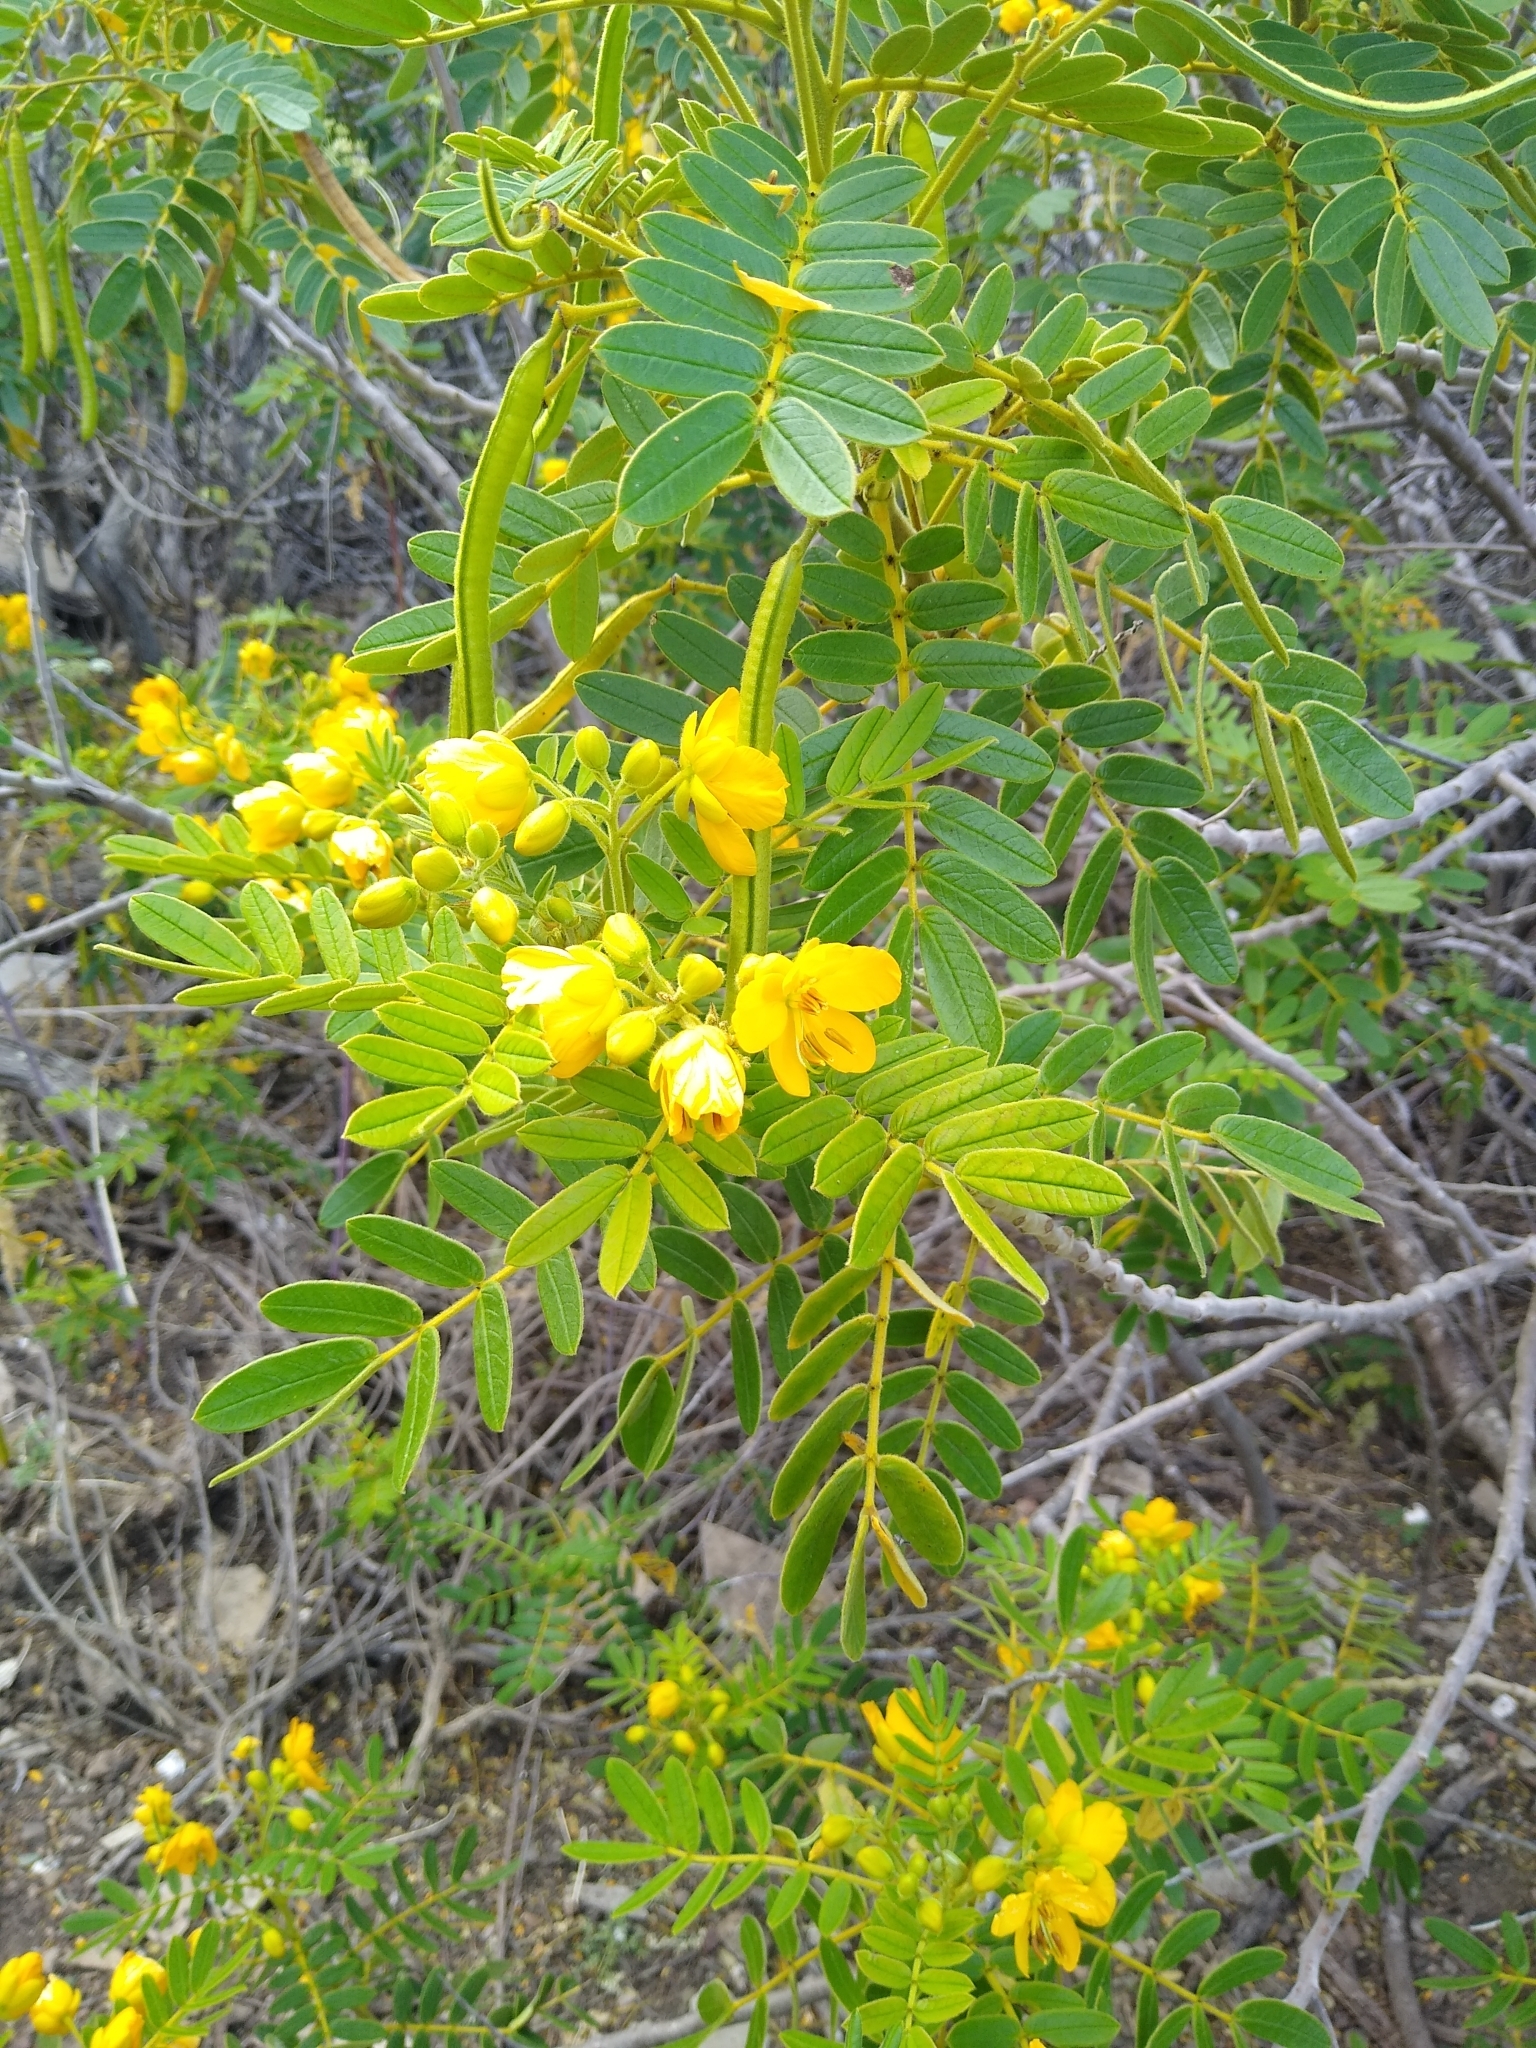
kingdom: Plantae
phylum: Tracheophyta
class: Magnoliopsida
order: Fabales
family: Fabaceae
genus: Senna
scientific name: Senna multiglandulosa
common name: Glandular senna
